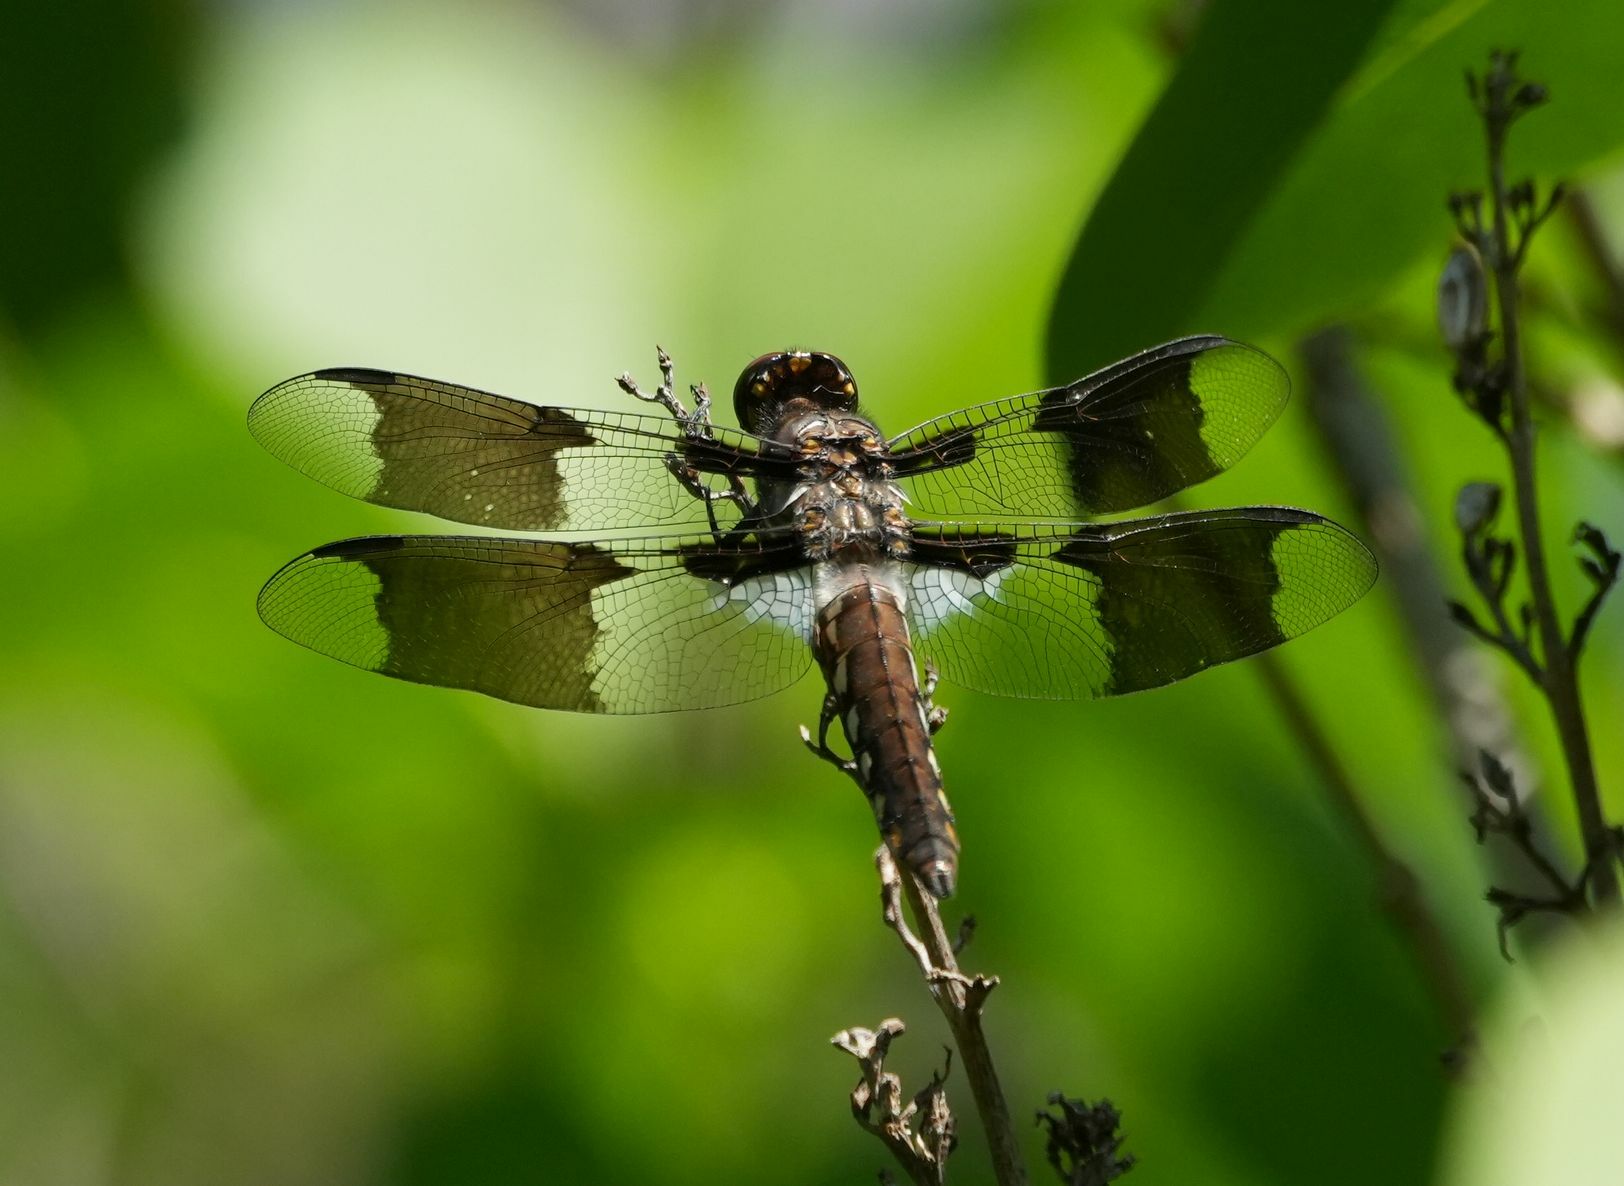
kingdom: Animalia
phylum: Arthropoda
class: Insecta
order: Odonata
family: Libellulidae
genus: Plathemis
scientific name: Plathemis lydia
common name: Common whitetail
